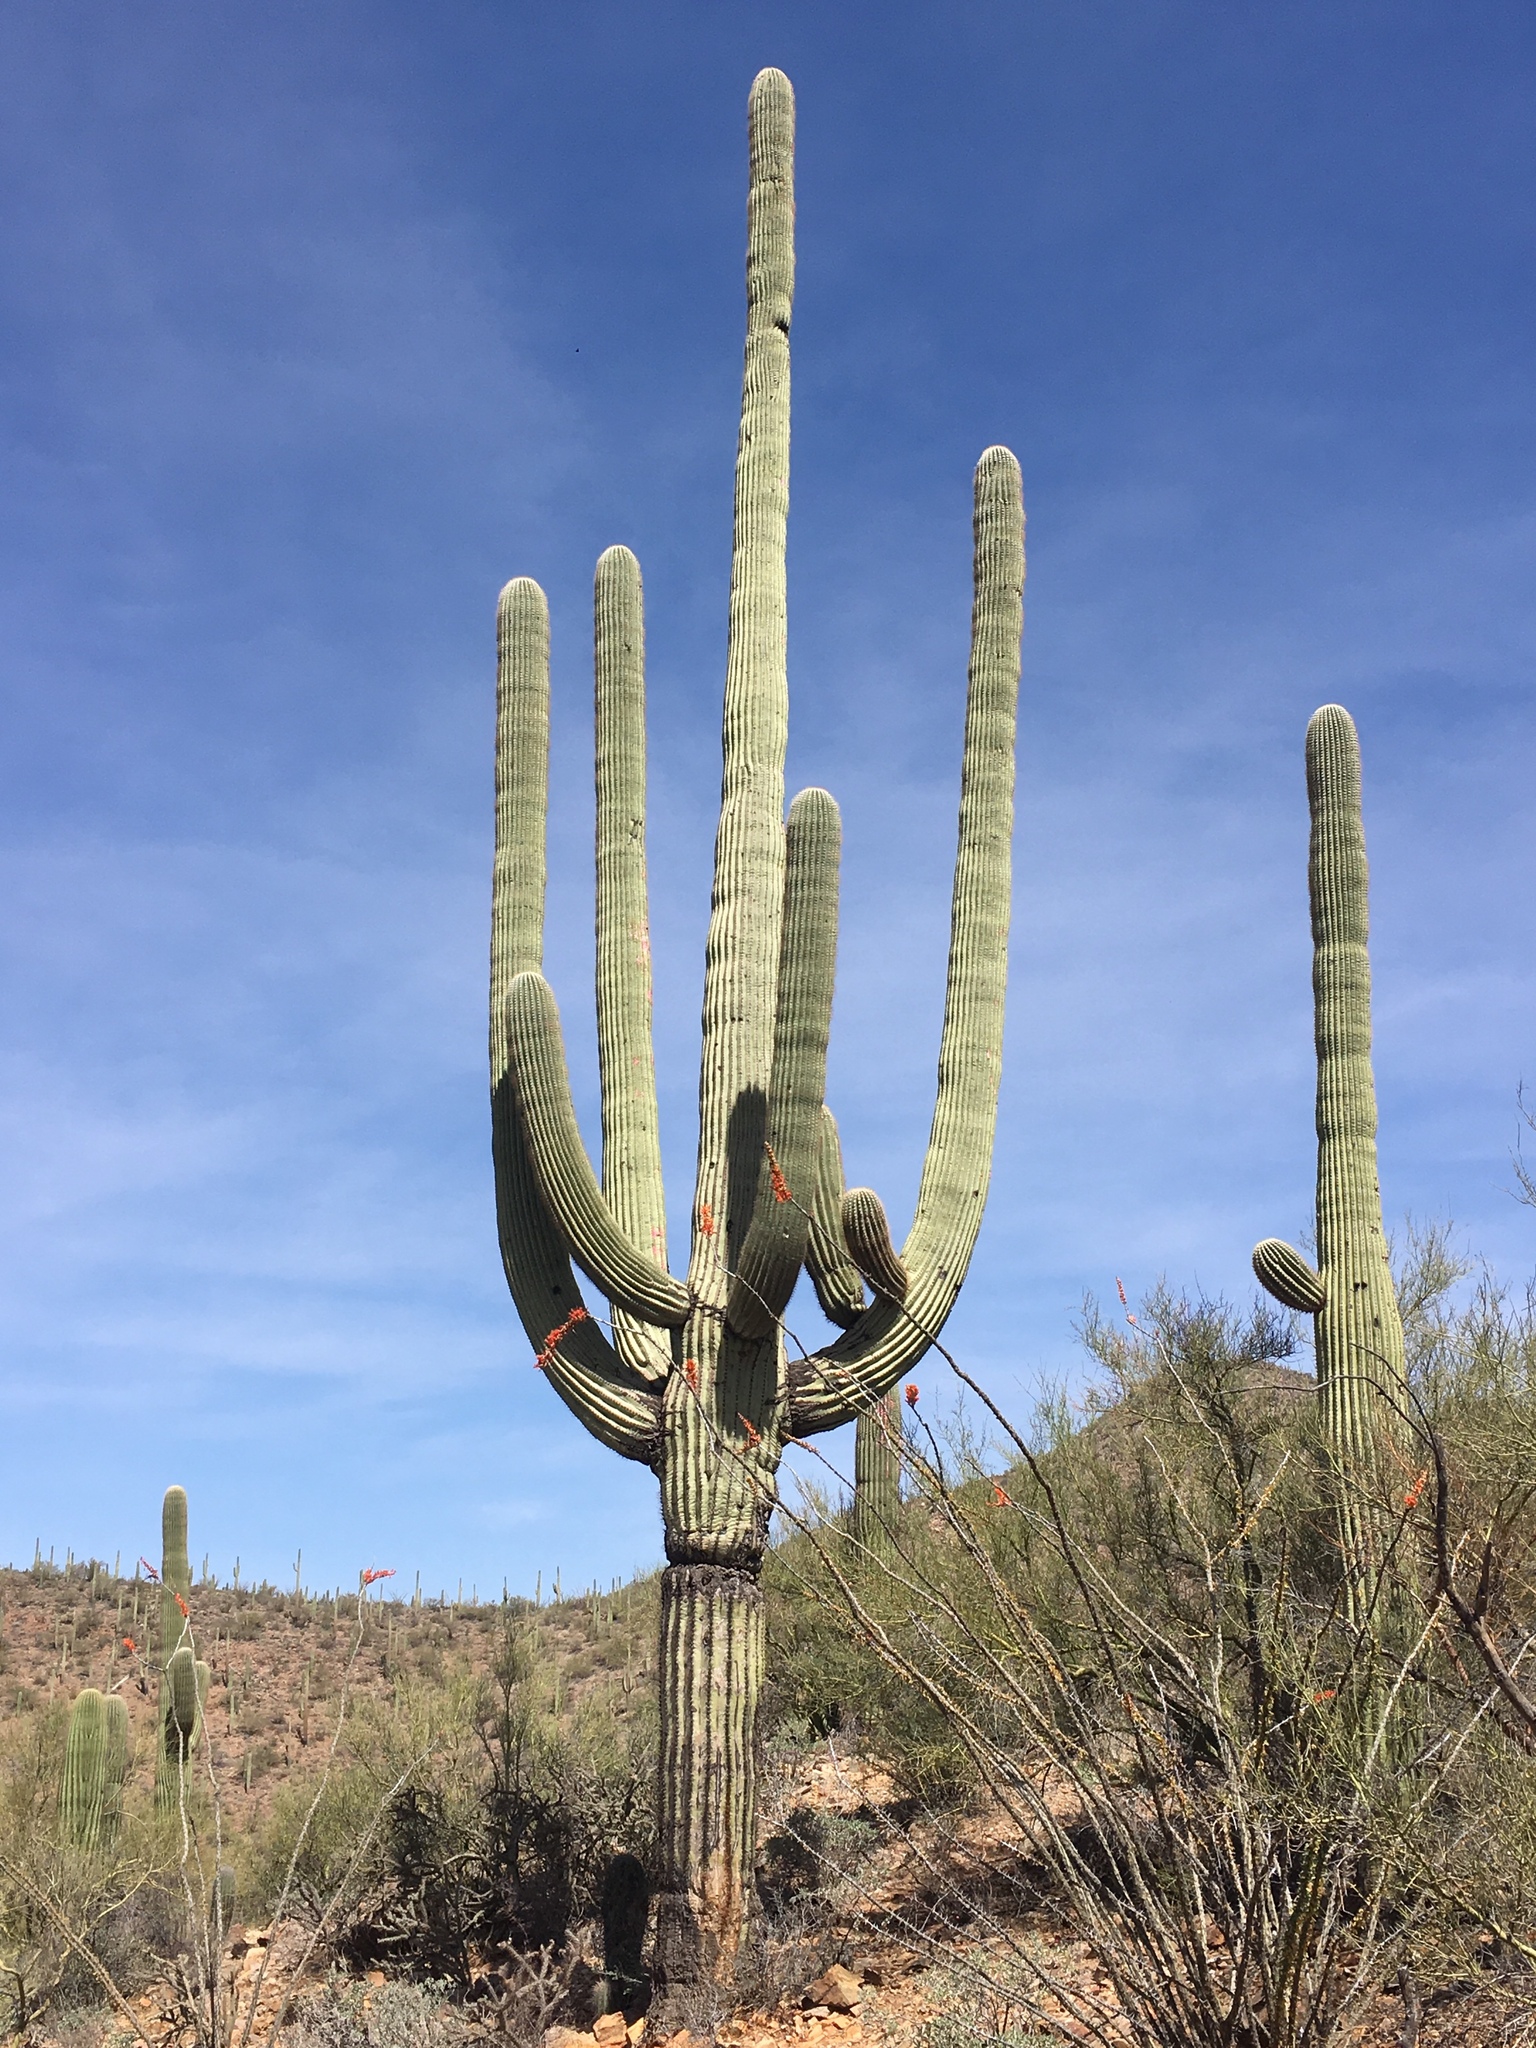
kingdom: Plantae
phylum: Tracheophyta
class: Magnoliopsida
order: Caryophyllales
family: Cactaceae
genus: Carnegiea
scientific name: Carnegiea gigantea
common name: Saguaro
